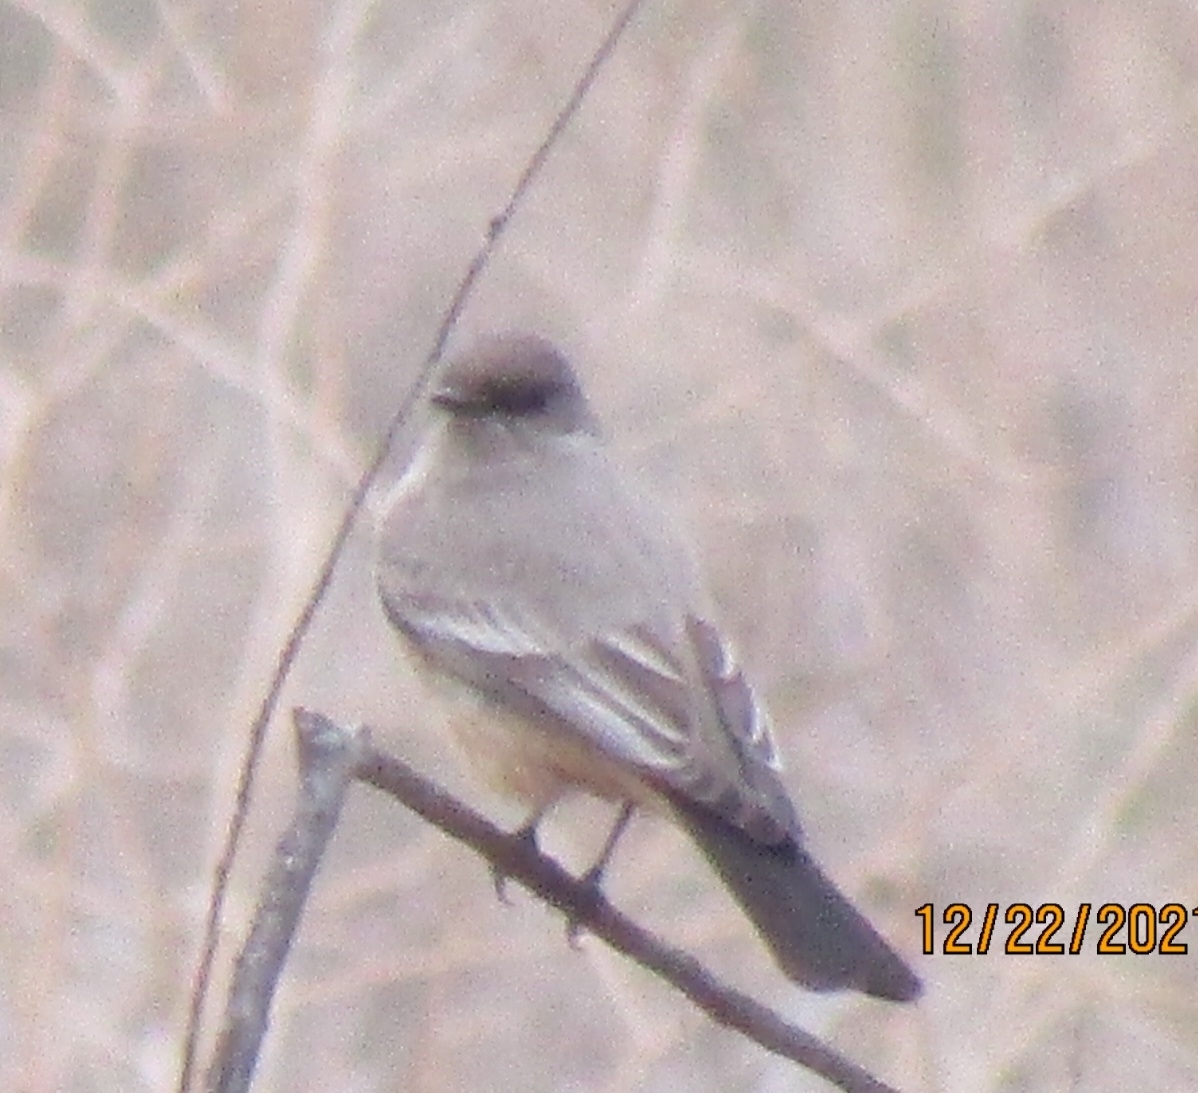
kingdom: Animalia
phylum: Chordata
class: Aves
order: Passeriformes
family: Tyrannidae
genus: Sayornis
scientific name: Sayornis saya
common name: Say's phoebe
